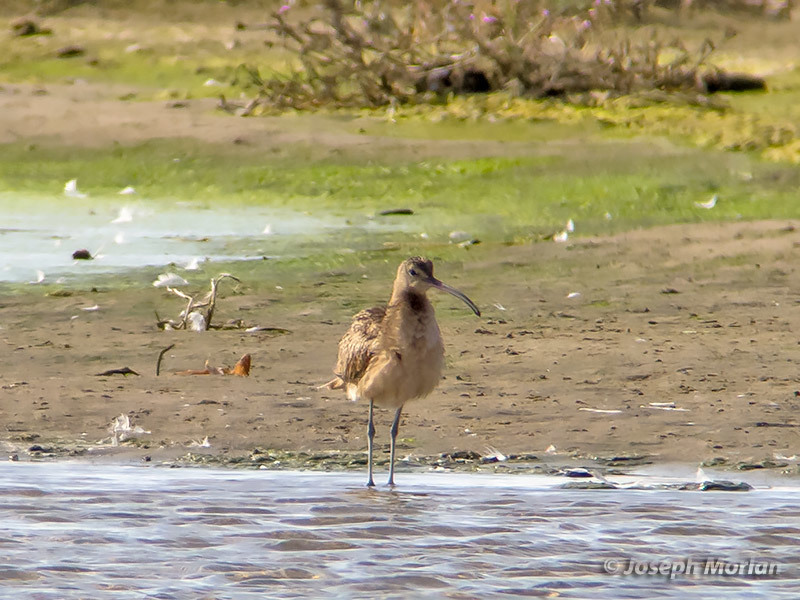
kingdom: Animalia
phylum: Chordata
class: Aves
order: Charadriiformes
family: Scolopacidae
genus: Numenius
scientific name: Numenius americanus
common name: Long-billed curlew
